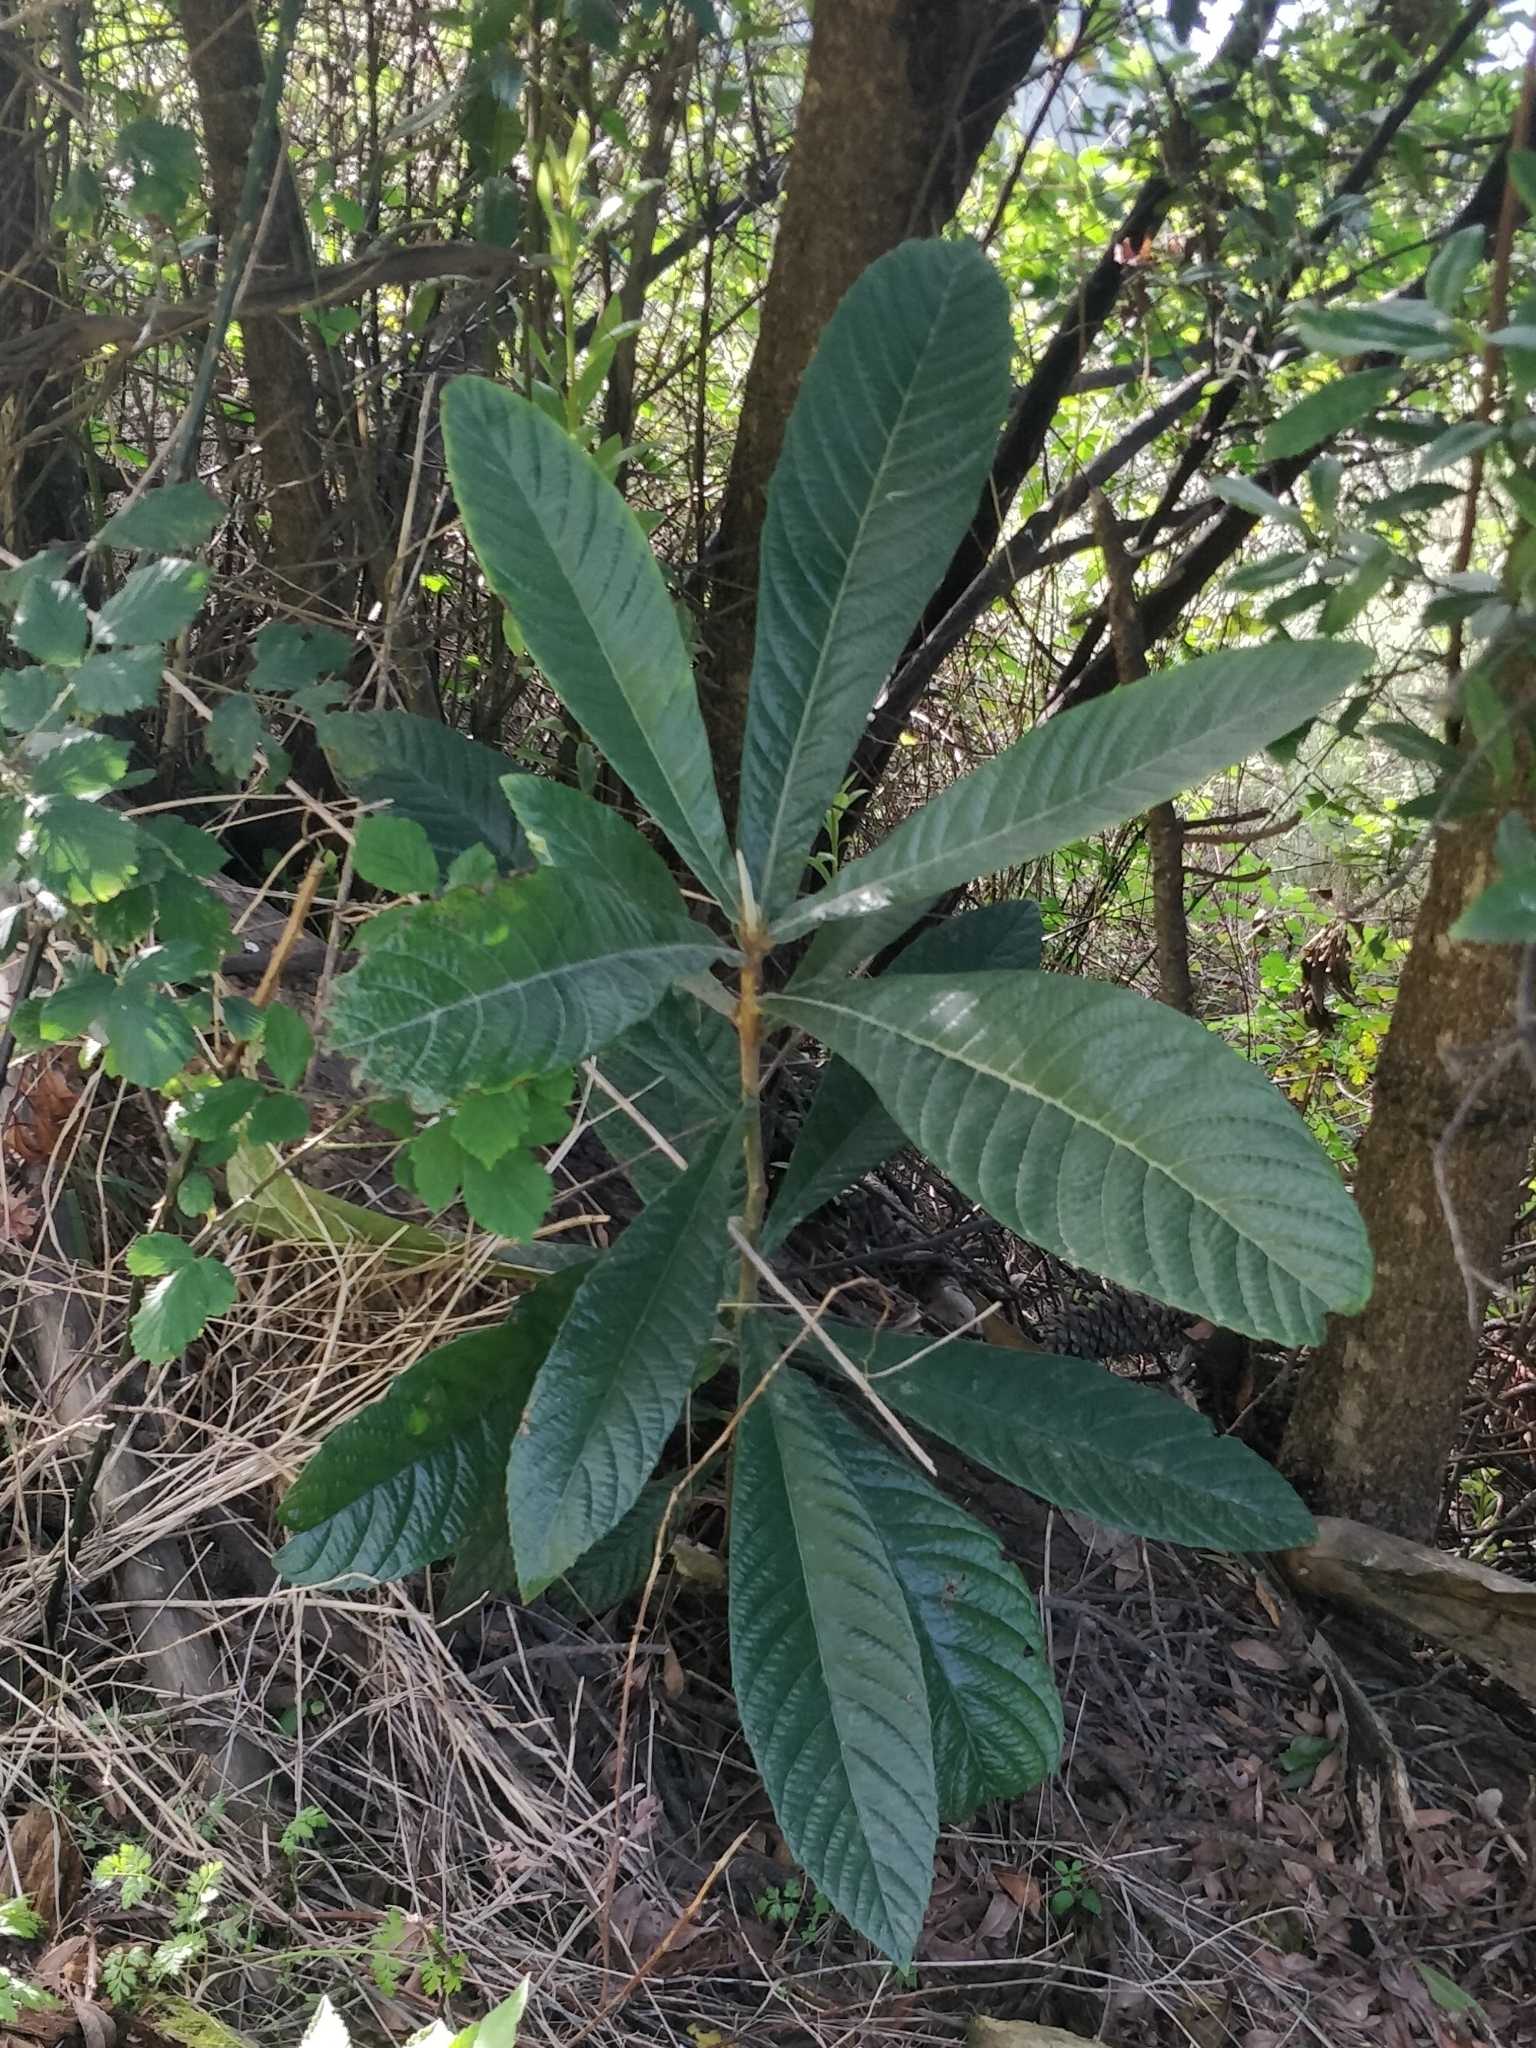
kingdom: Plantae
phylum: Tracheophyta
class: Magnoliopsida
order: Rosales
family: Rosaceae
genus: Rhaphiolepis
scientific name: Rhaphiolepis bibas
